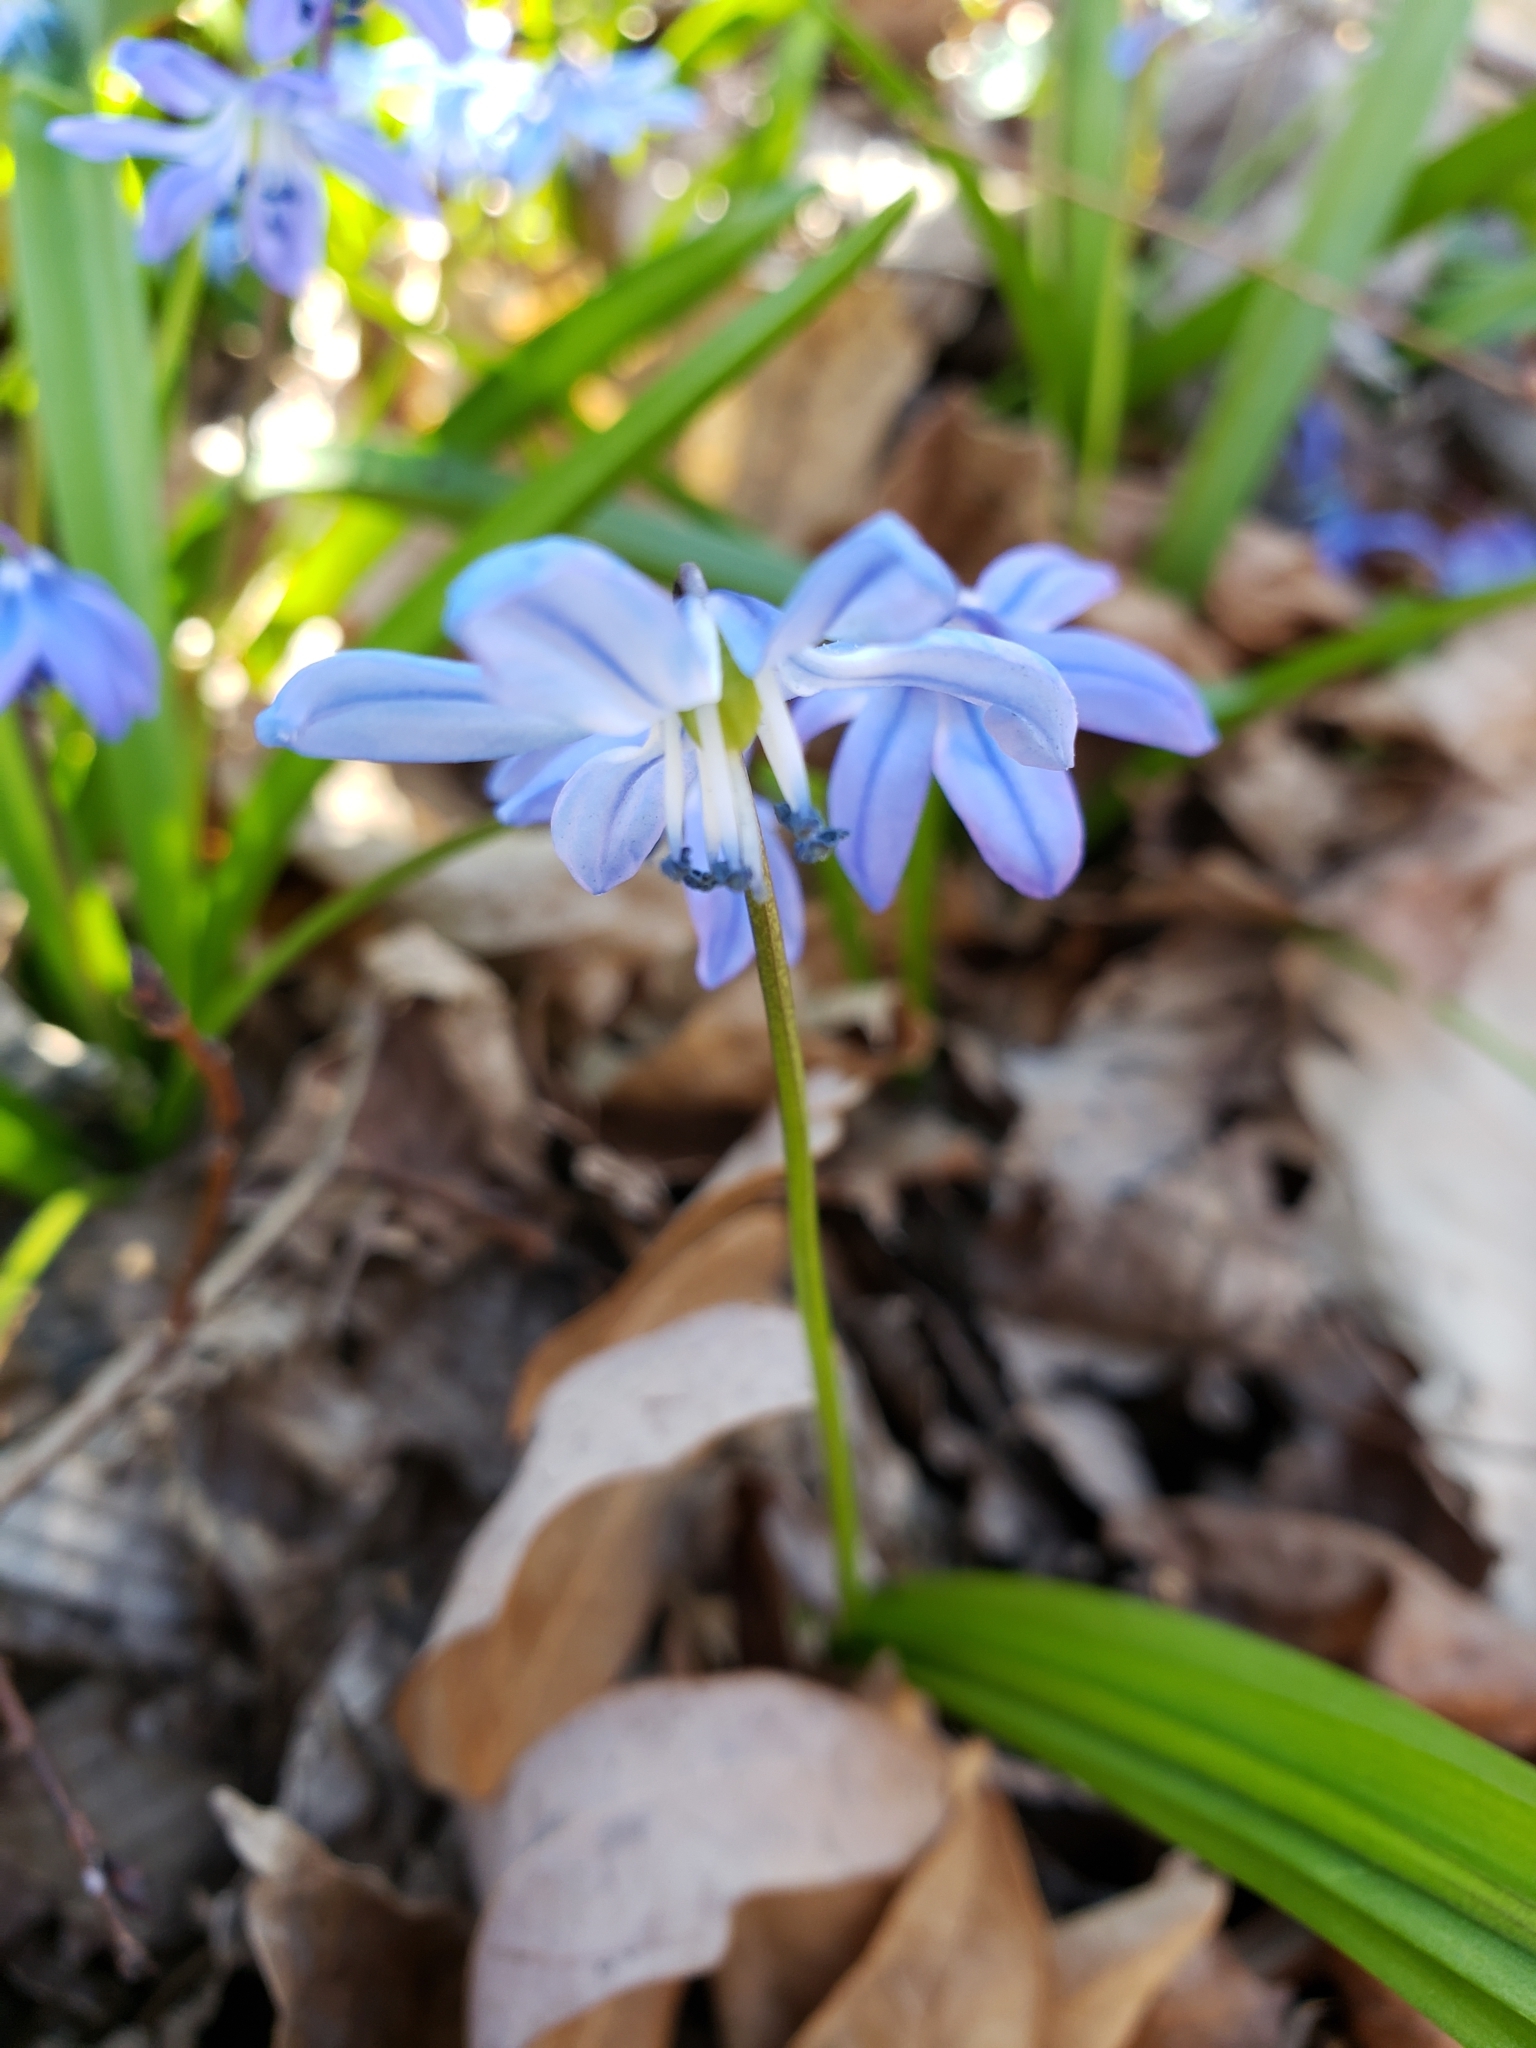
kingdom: Plantae
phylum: Tracheophyta
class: Liliopsida
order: Asparagales
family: Asparagaceae
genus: Scilla
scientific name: Scilla siberica
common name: Siberian squill
